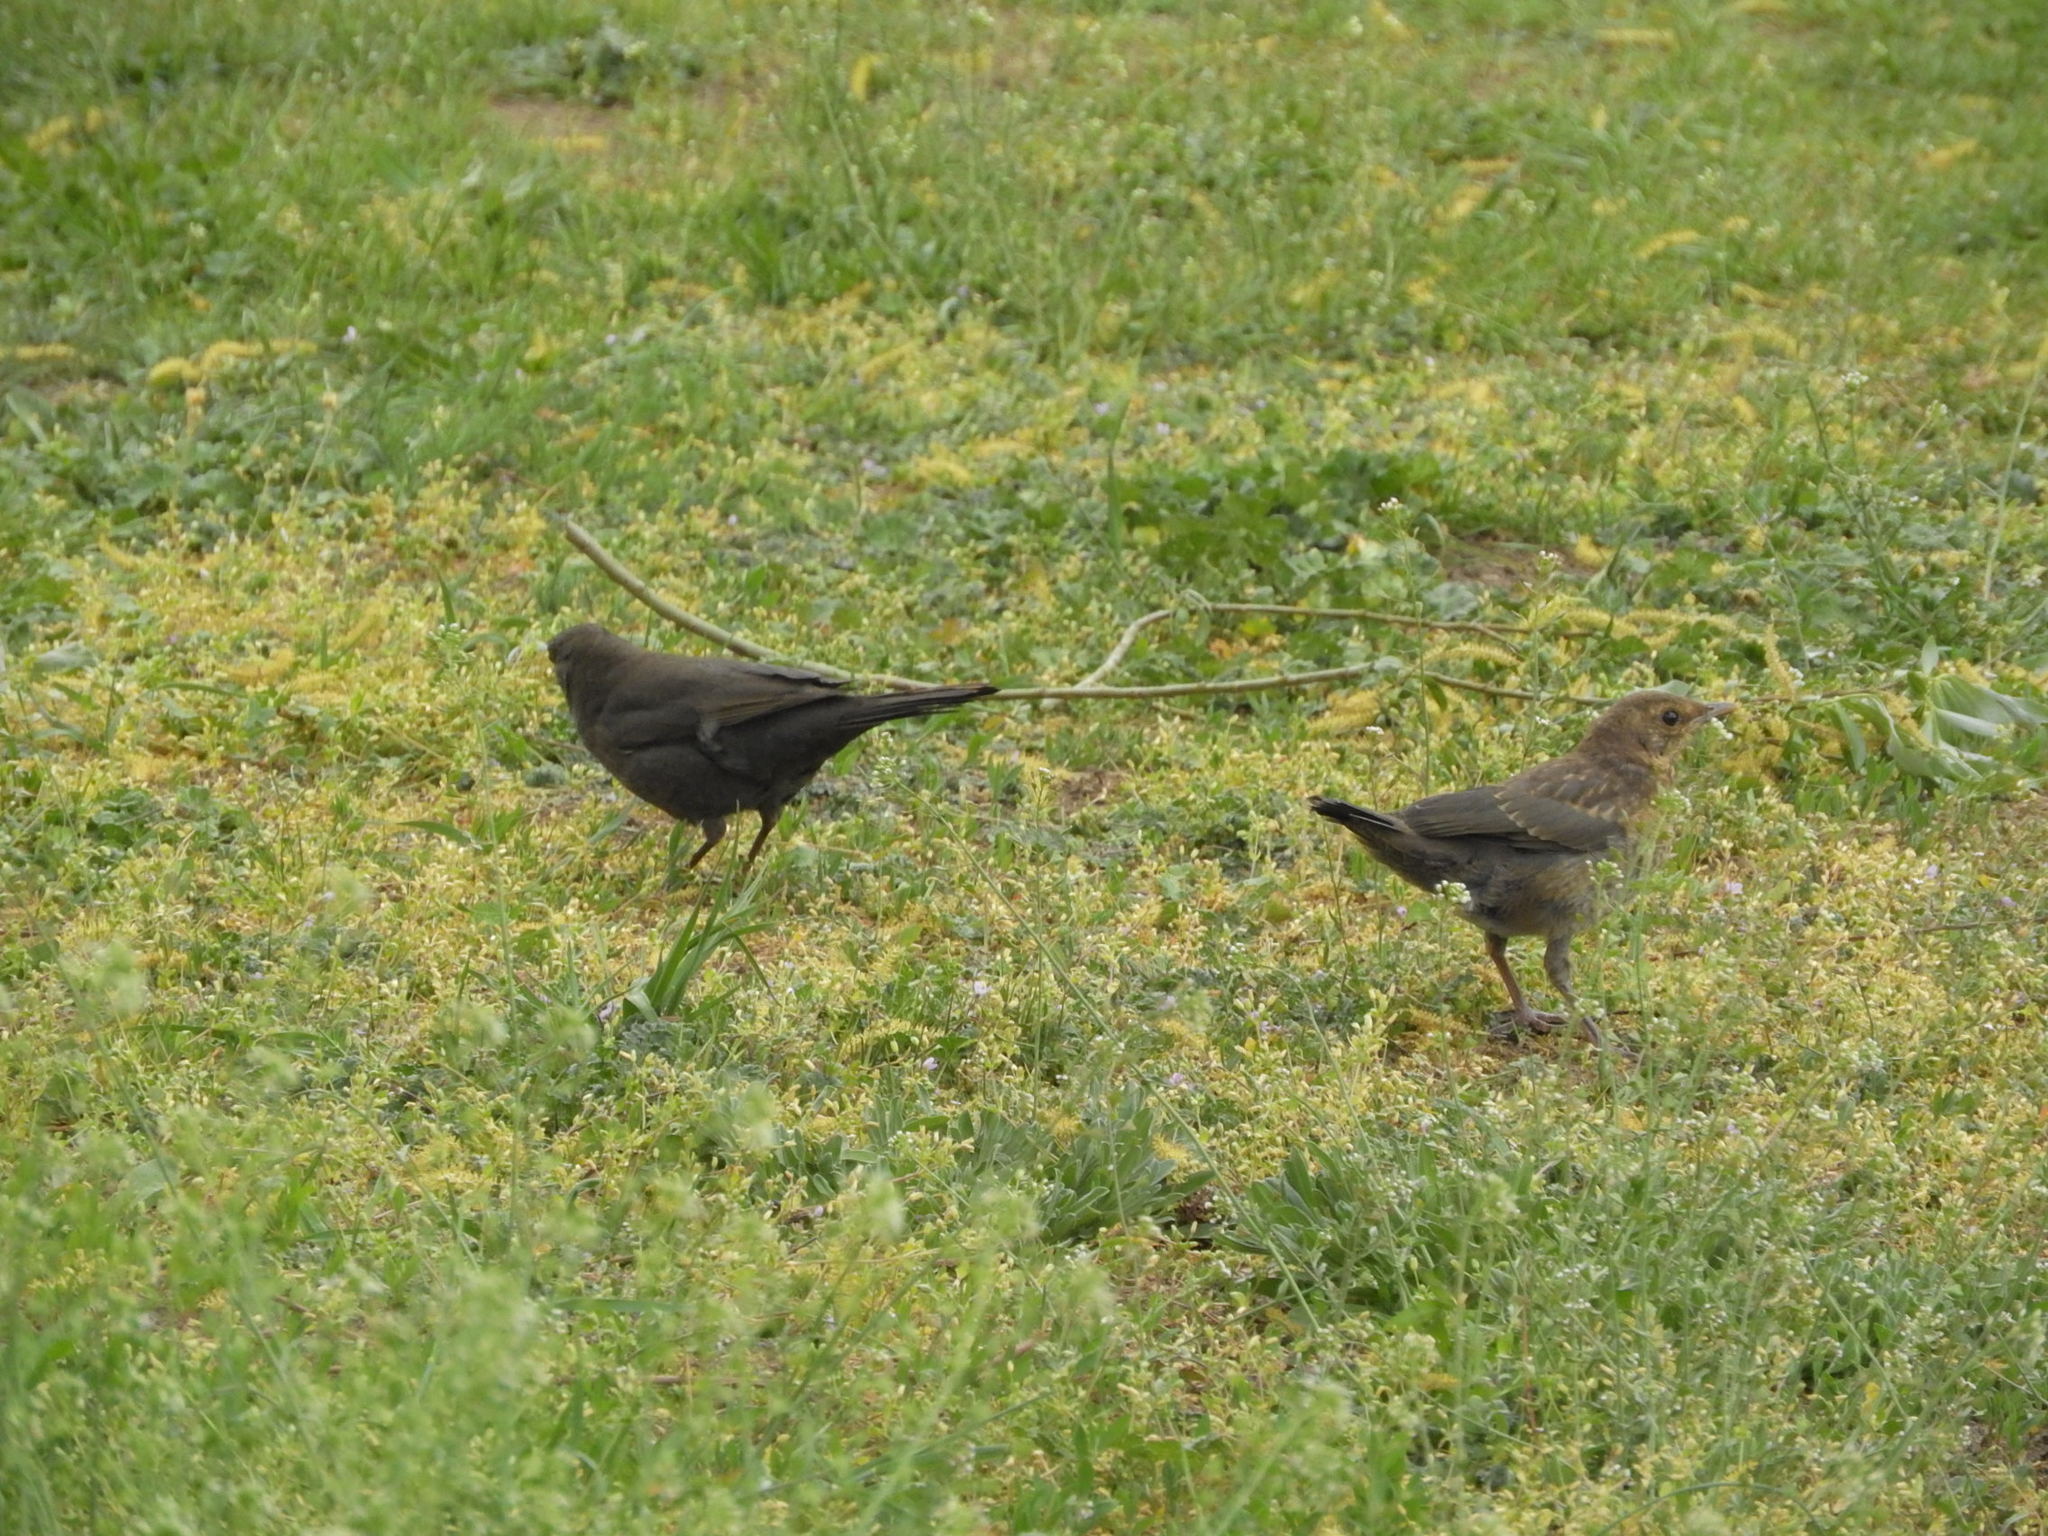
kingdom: Animalia
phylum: Chordata
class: Aves
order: Passeriformes
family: Turdidae
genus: Turdus
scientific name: Turdus merula
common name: Common blackbird
